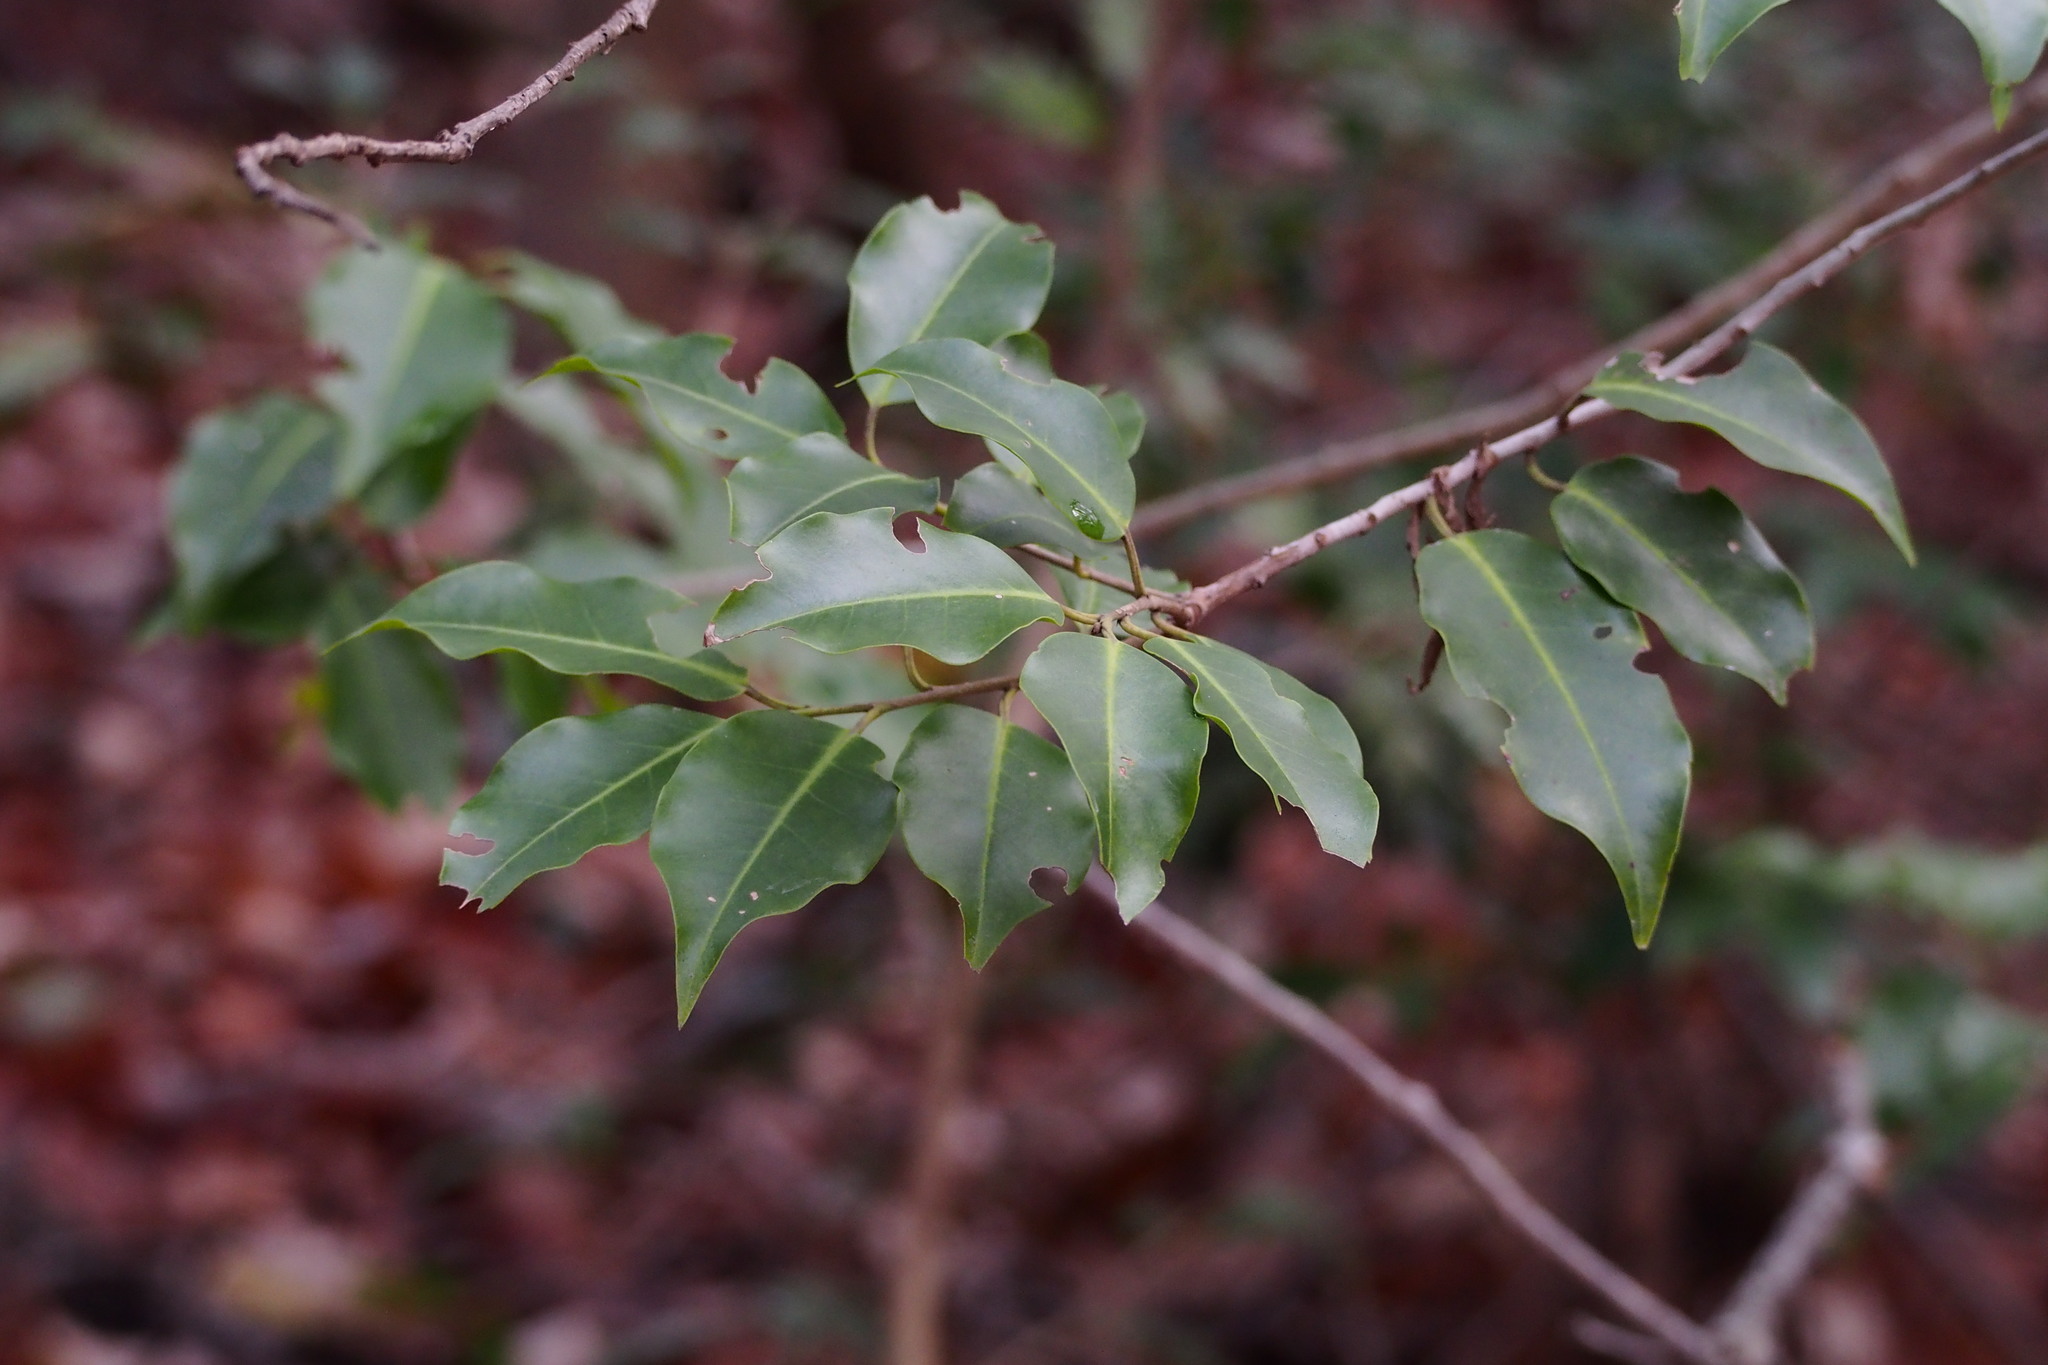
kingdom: Plantae
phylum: Tracheophyta
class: Magnoliopsida
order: Aquifoliales
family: Aquifoliaceae
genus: Ilex
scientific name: Ilex pedunculosa
